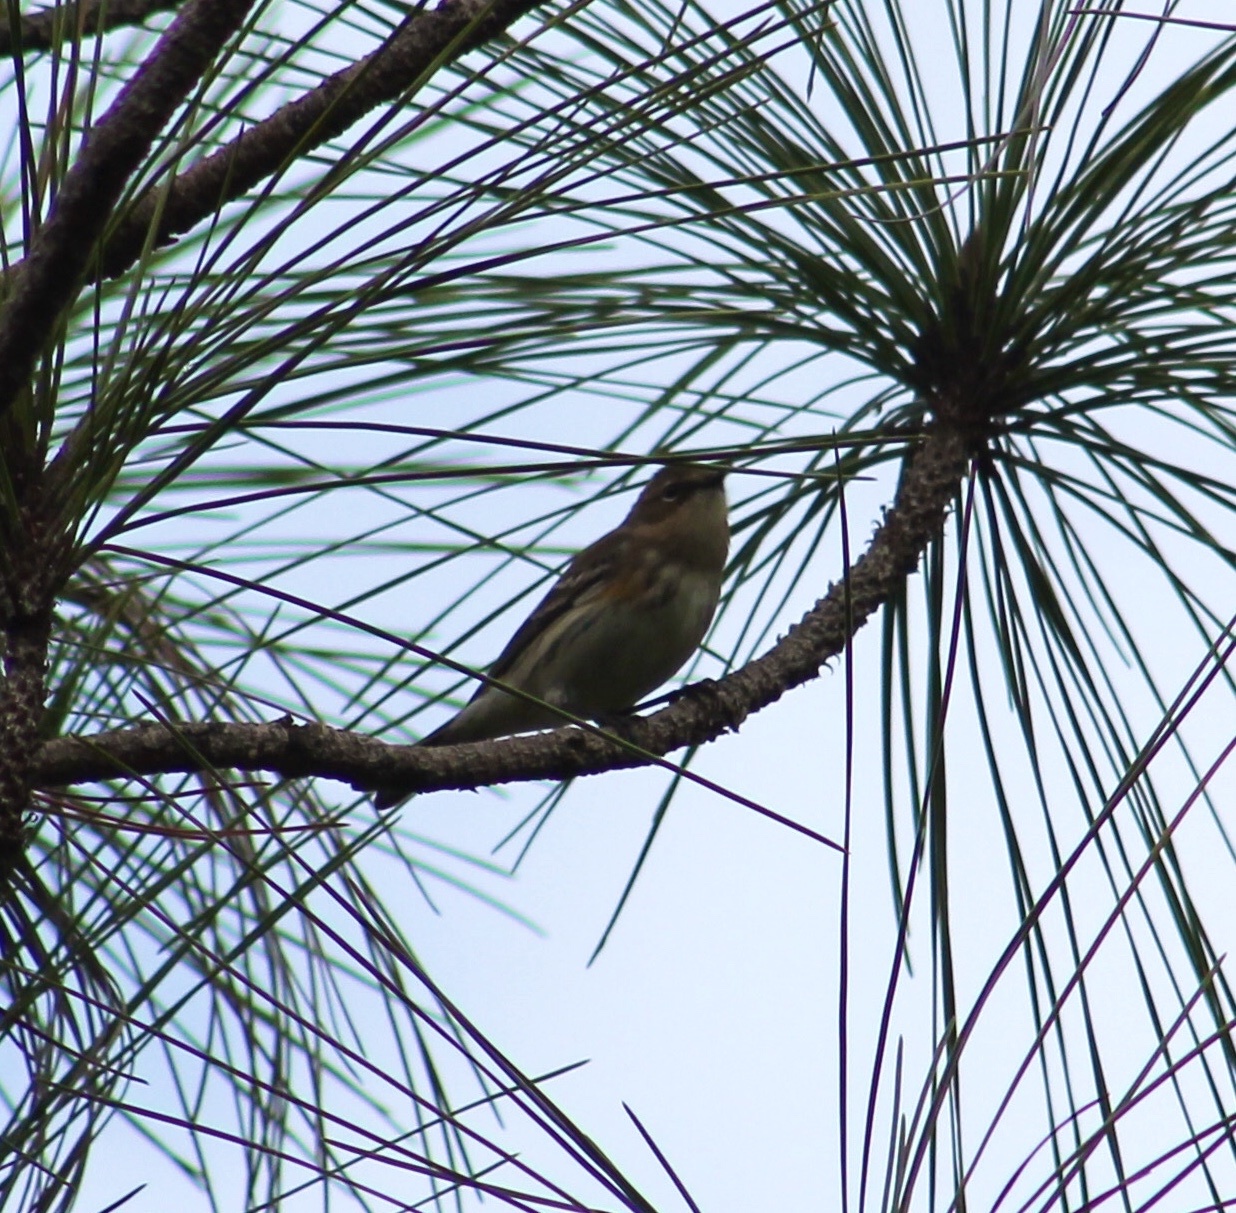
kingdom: Animalia
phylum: Chordata
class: Aves
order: Passeriformes
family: Parulidae
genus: Setophaga
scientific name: Setophaga coronata
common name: Myrtle warbler
